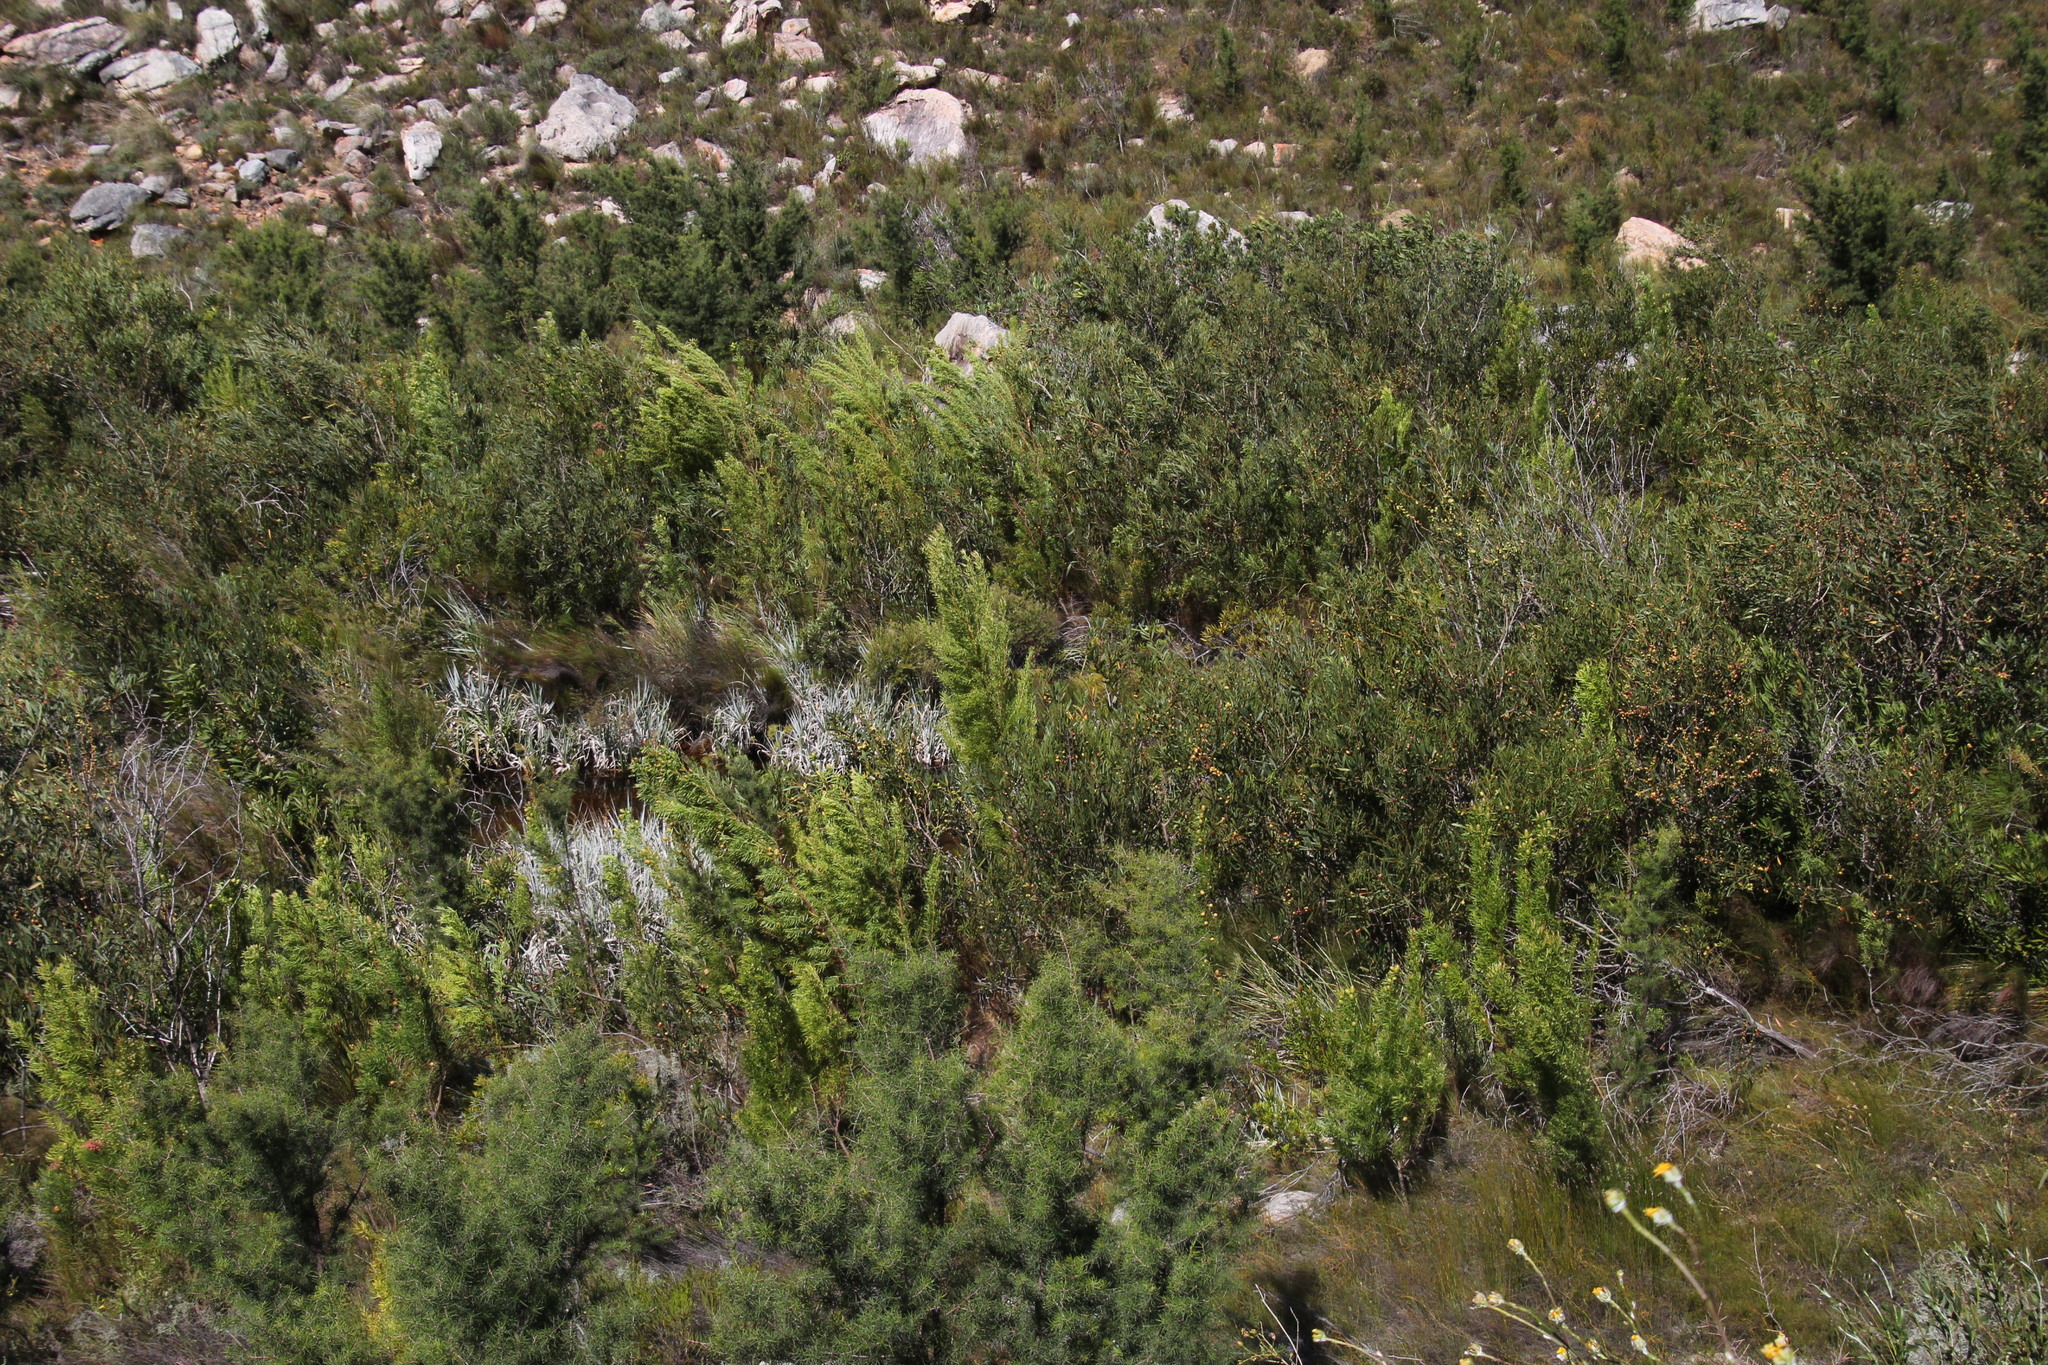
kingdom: Plantae
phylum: Tracheophyta
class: Magnoliopsida
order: Fabales
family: Fabaceae
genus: Acacia
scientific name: Acacia longifolia
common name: Sydney golden wattle
